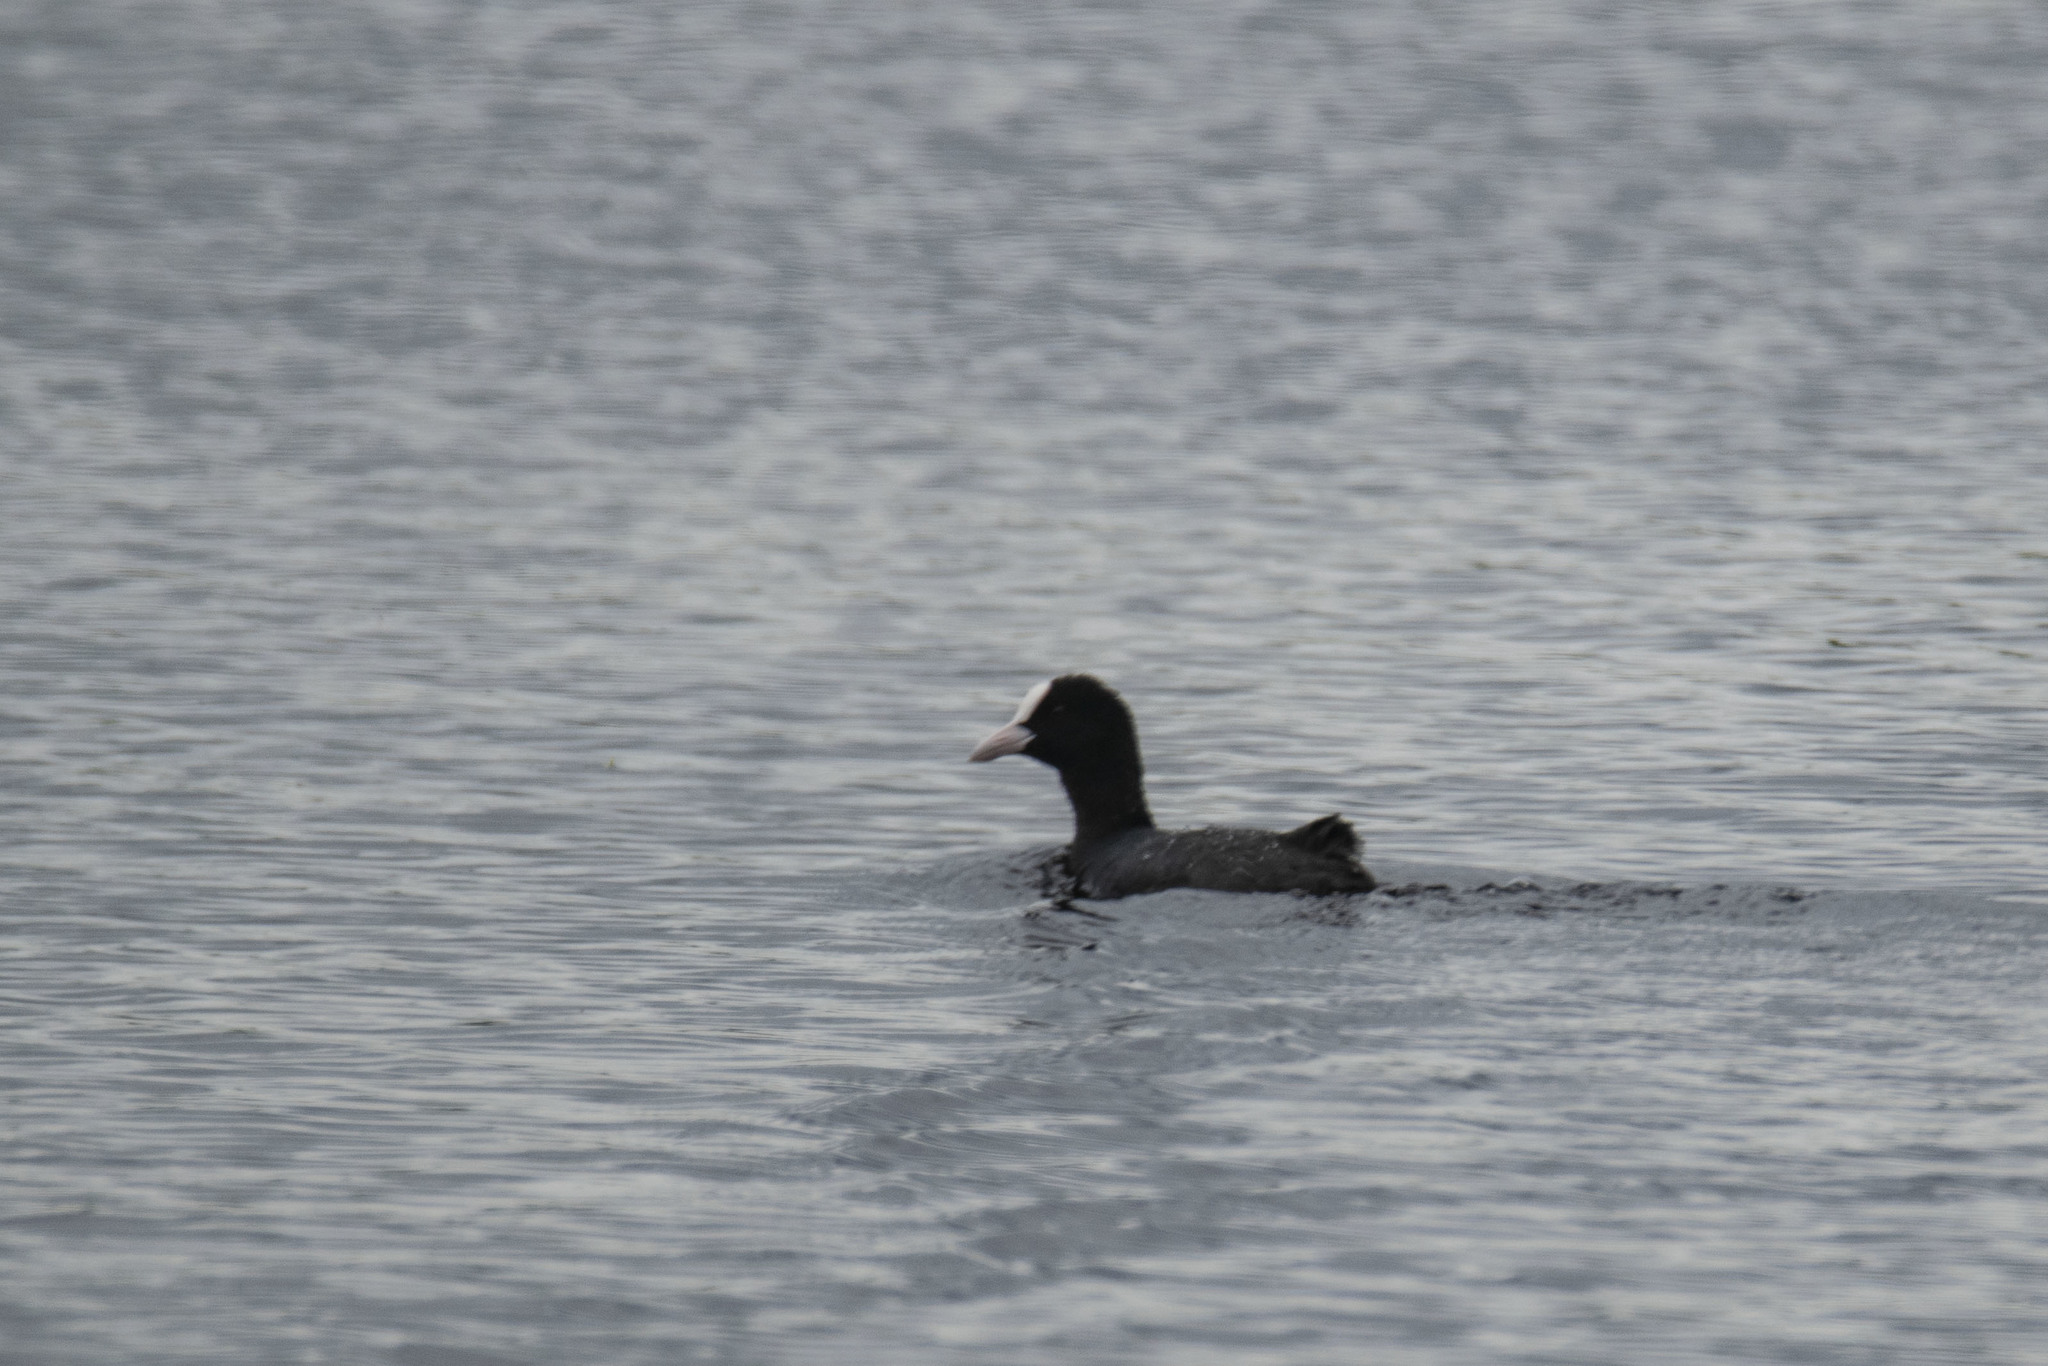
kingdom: Animalia
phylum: Chordata
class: Aves
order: Gruiformes
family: Rallidae
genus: Fulica
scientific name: Fulica atra
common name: Eurasian coot
